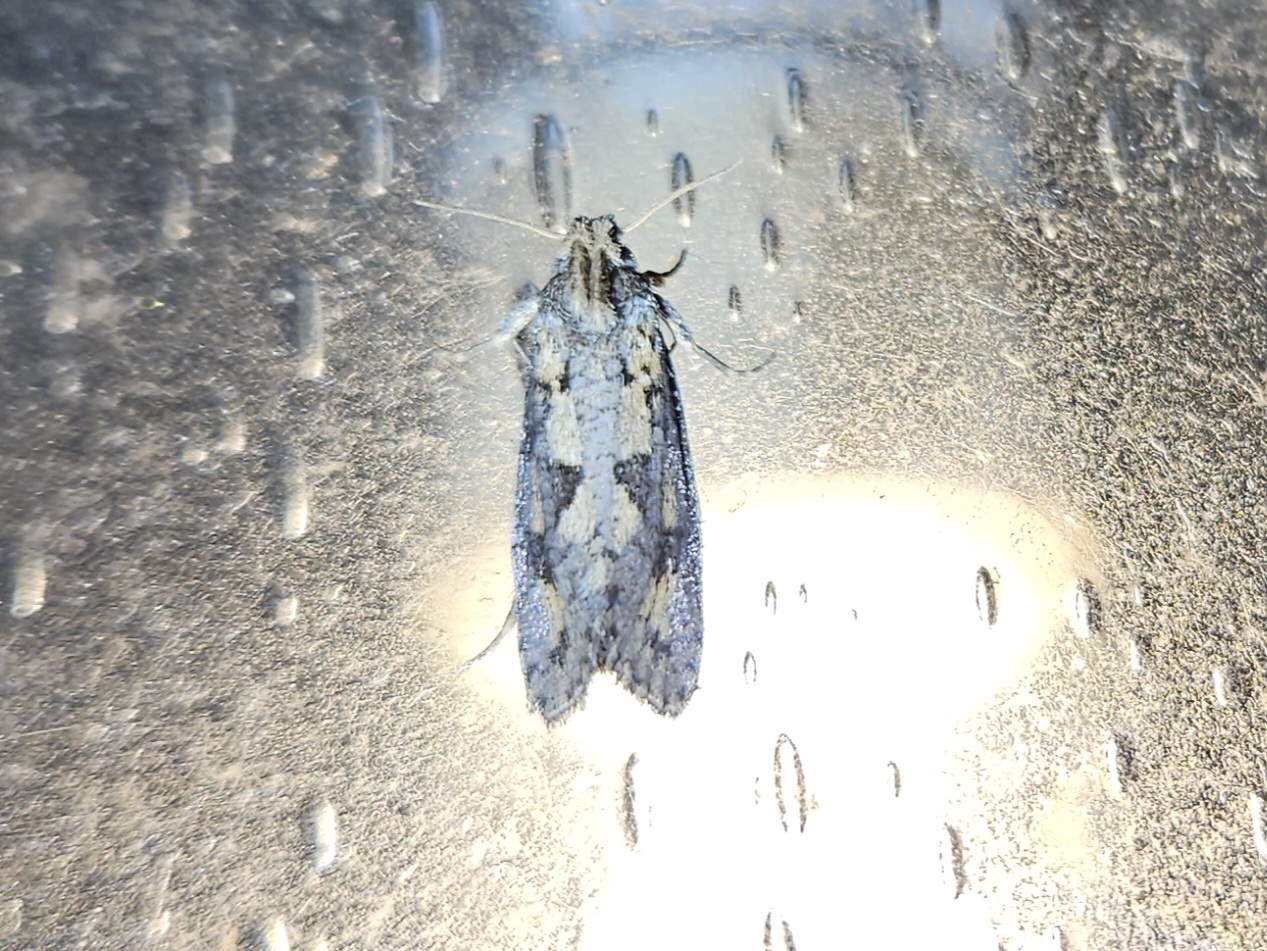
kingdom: Animalia
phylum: Arthropoda
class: Insecta
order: Lepidoptera
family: Tineidae
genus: Acrolophus
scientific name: Acrolophus popeanella
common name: Clemens' grass tubeworm moth
